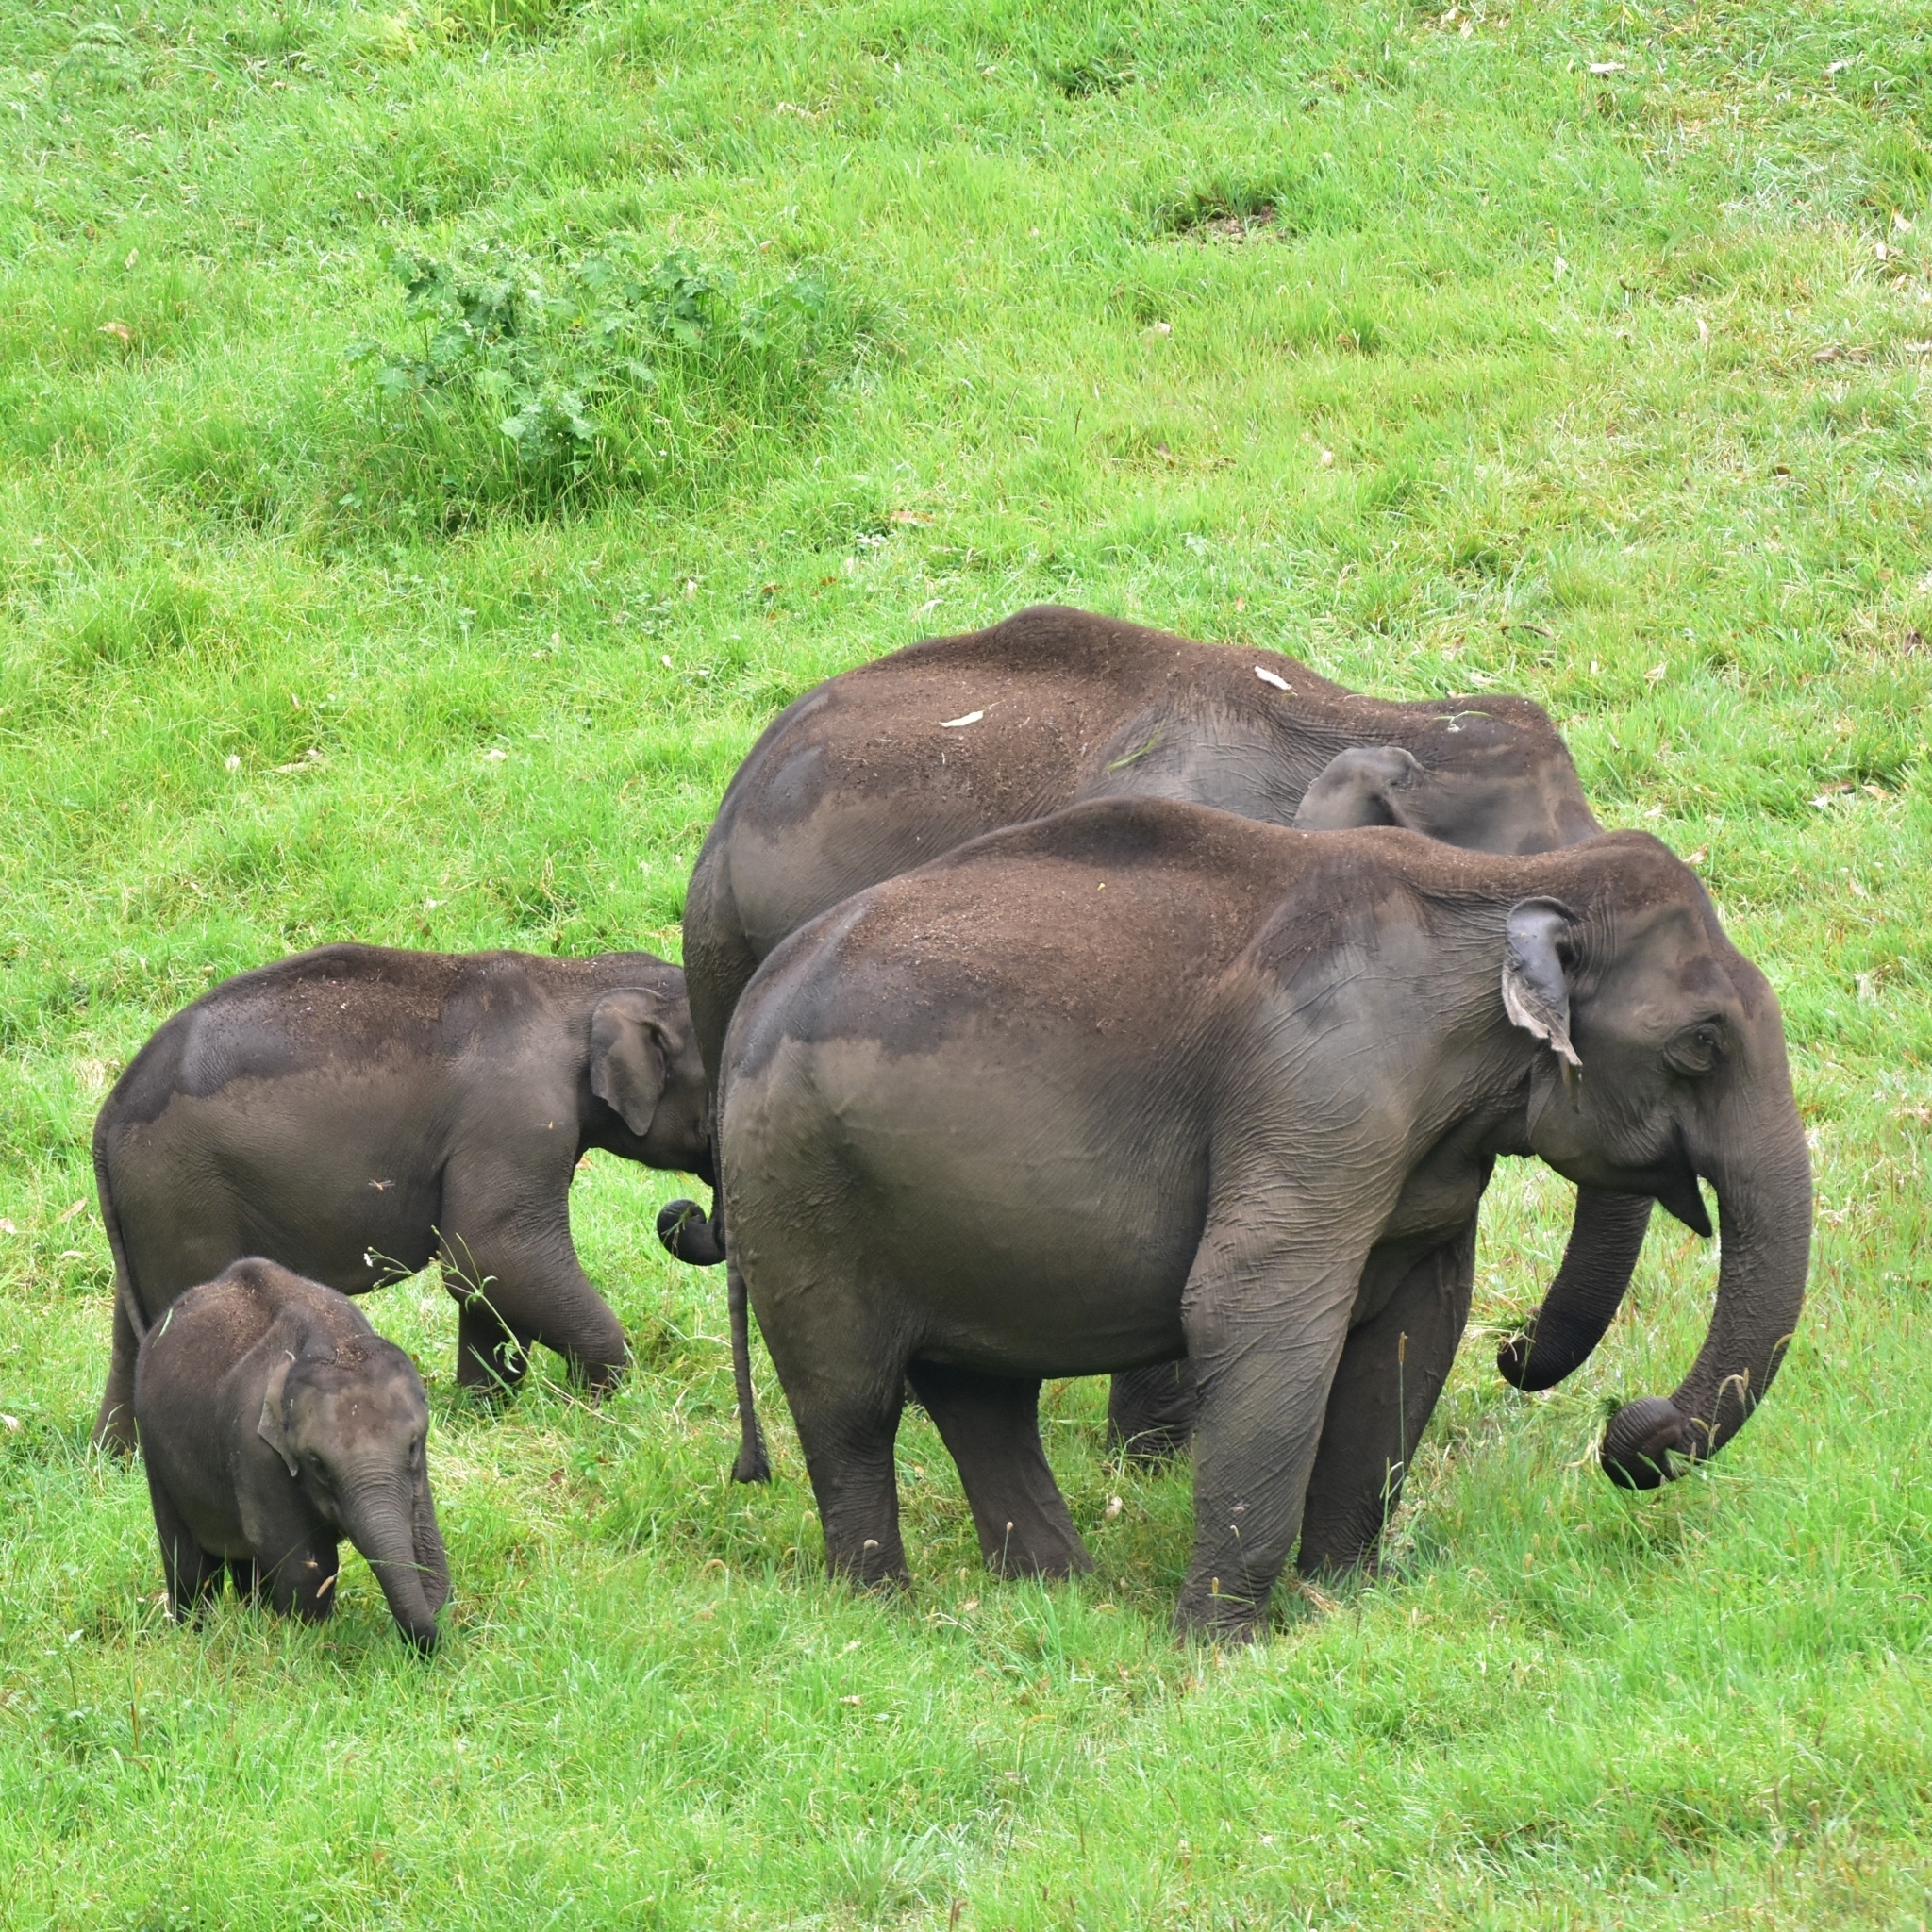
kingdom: Animalia
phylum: Chordata
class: Mammalia
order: Proboscidea
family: Elephantidae
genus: Elephas
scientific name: Elephas maximus
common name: Asian elephant
